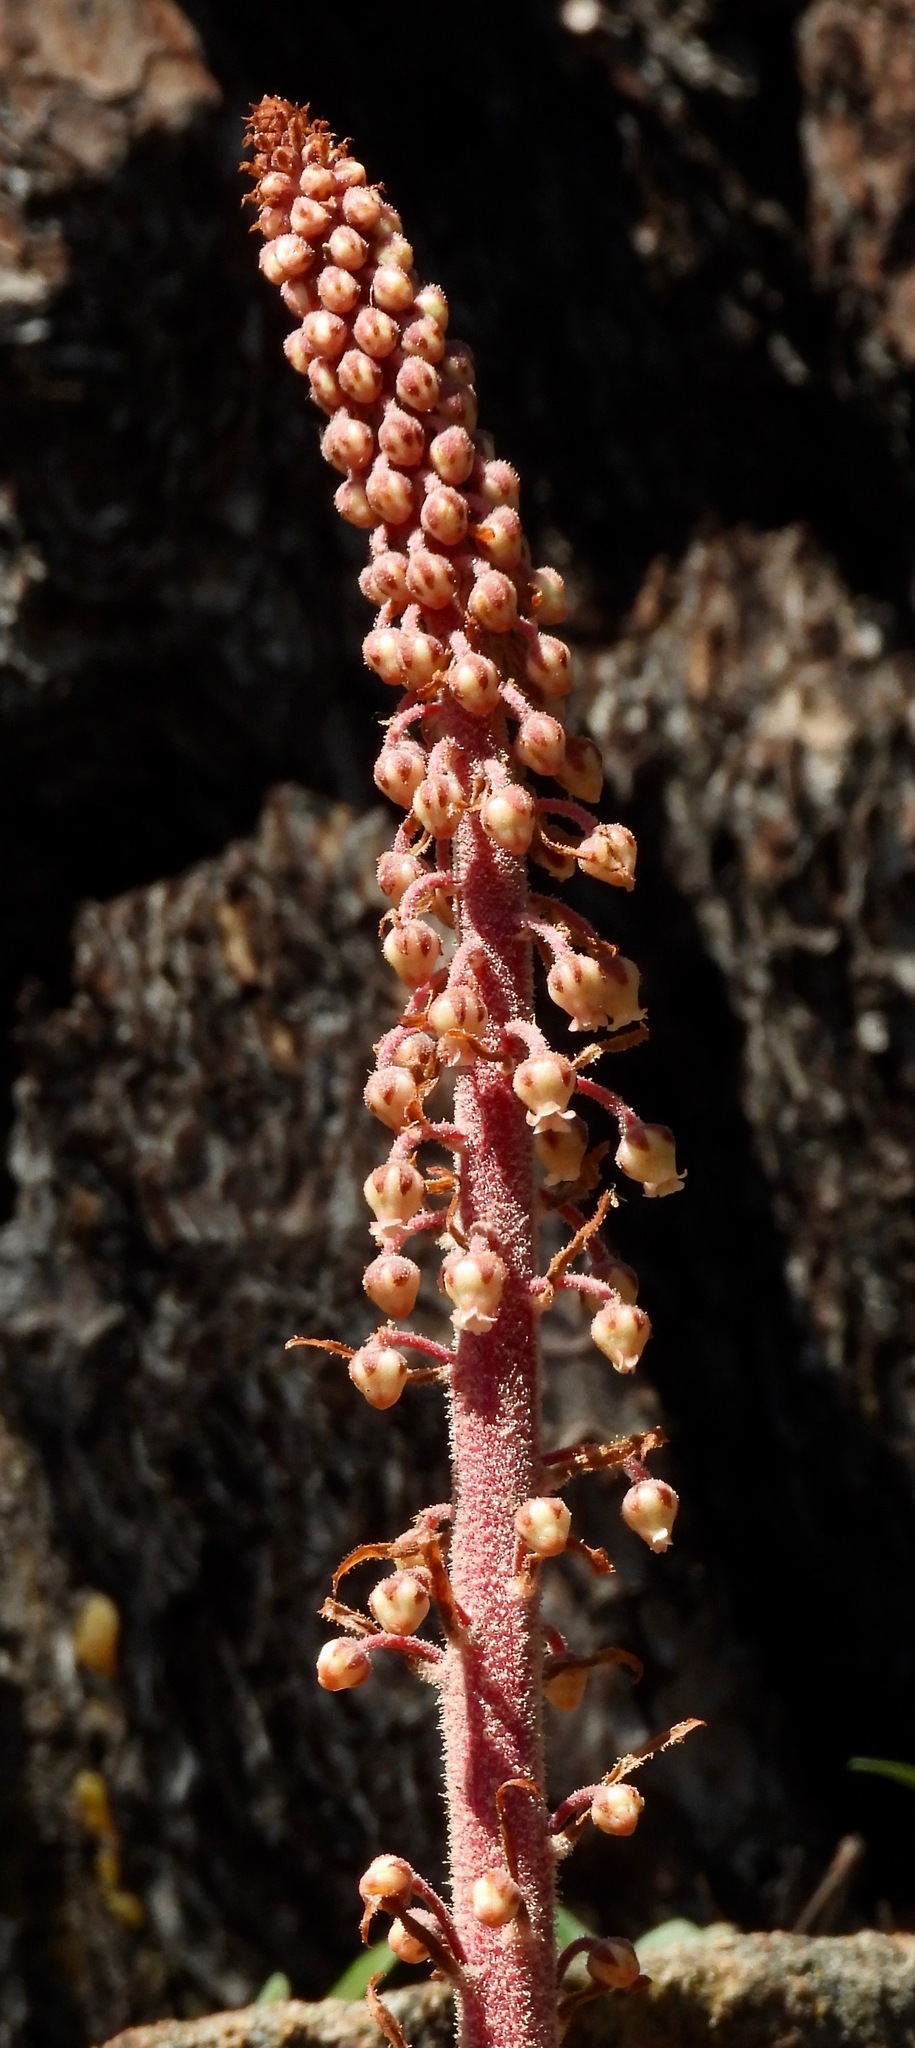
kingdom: Plantae
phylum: Tracheophyta
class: Magnoliopsida
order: Ericales
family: Ericaceae
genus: Pterospora
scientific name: Pterospora andromedea
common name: Giant bird's-nest
